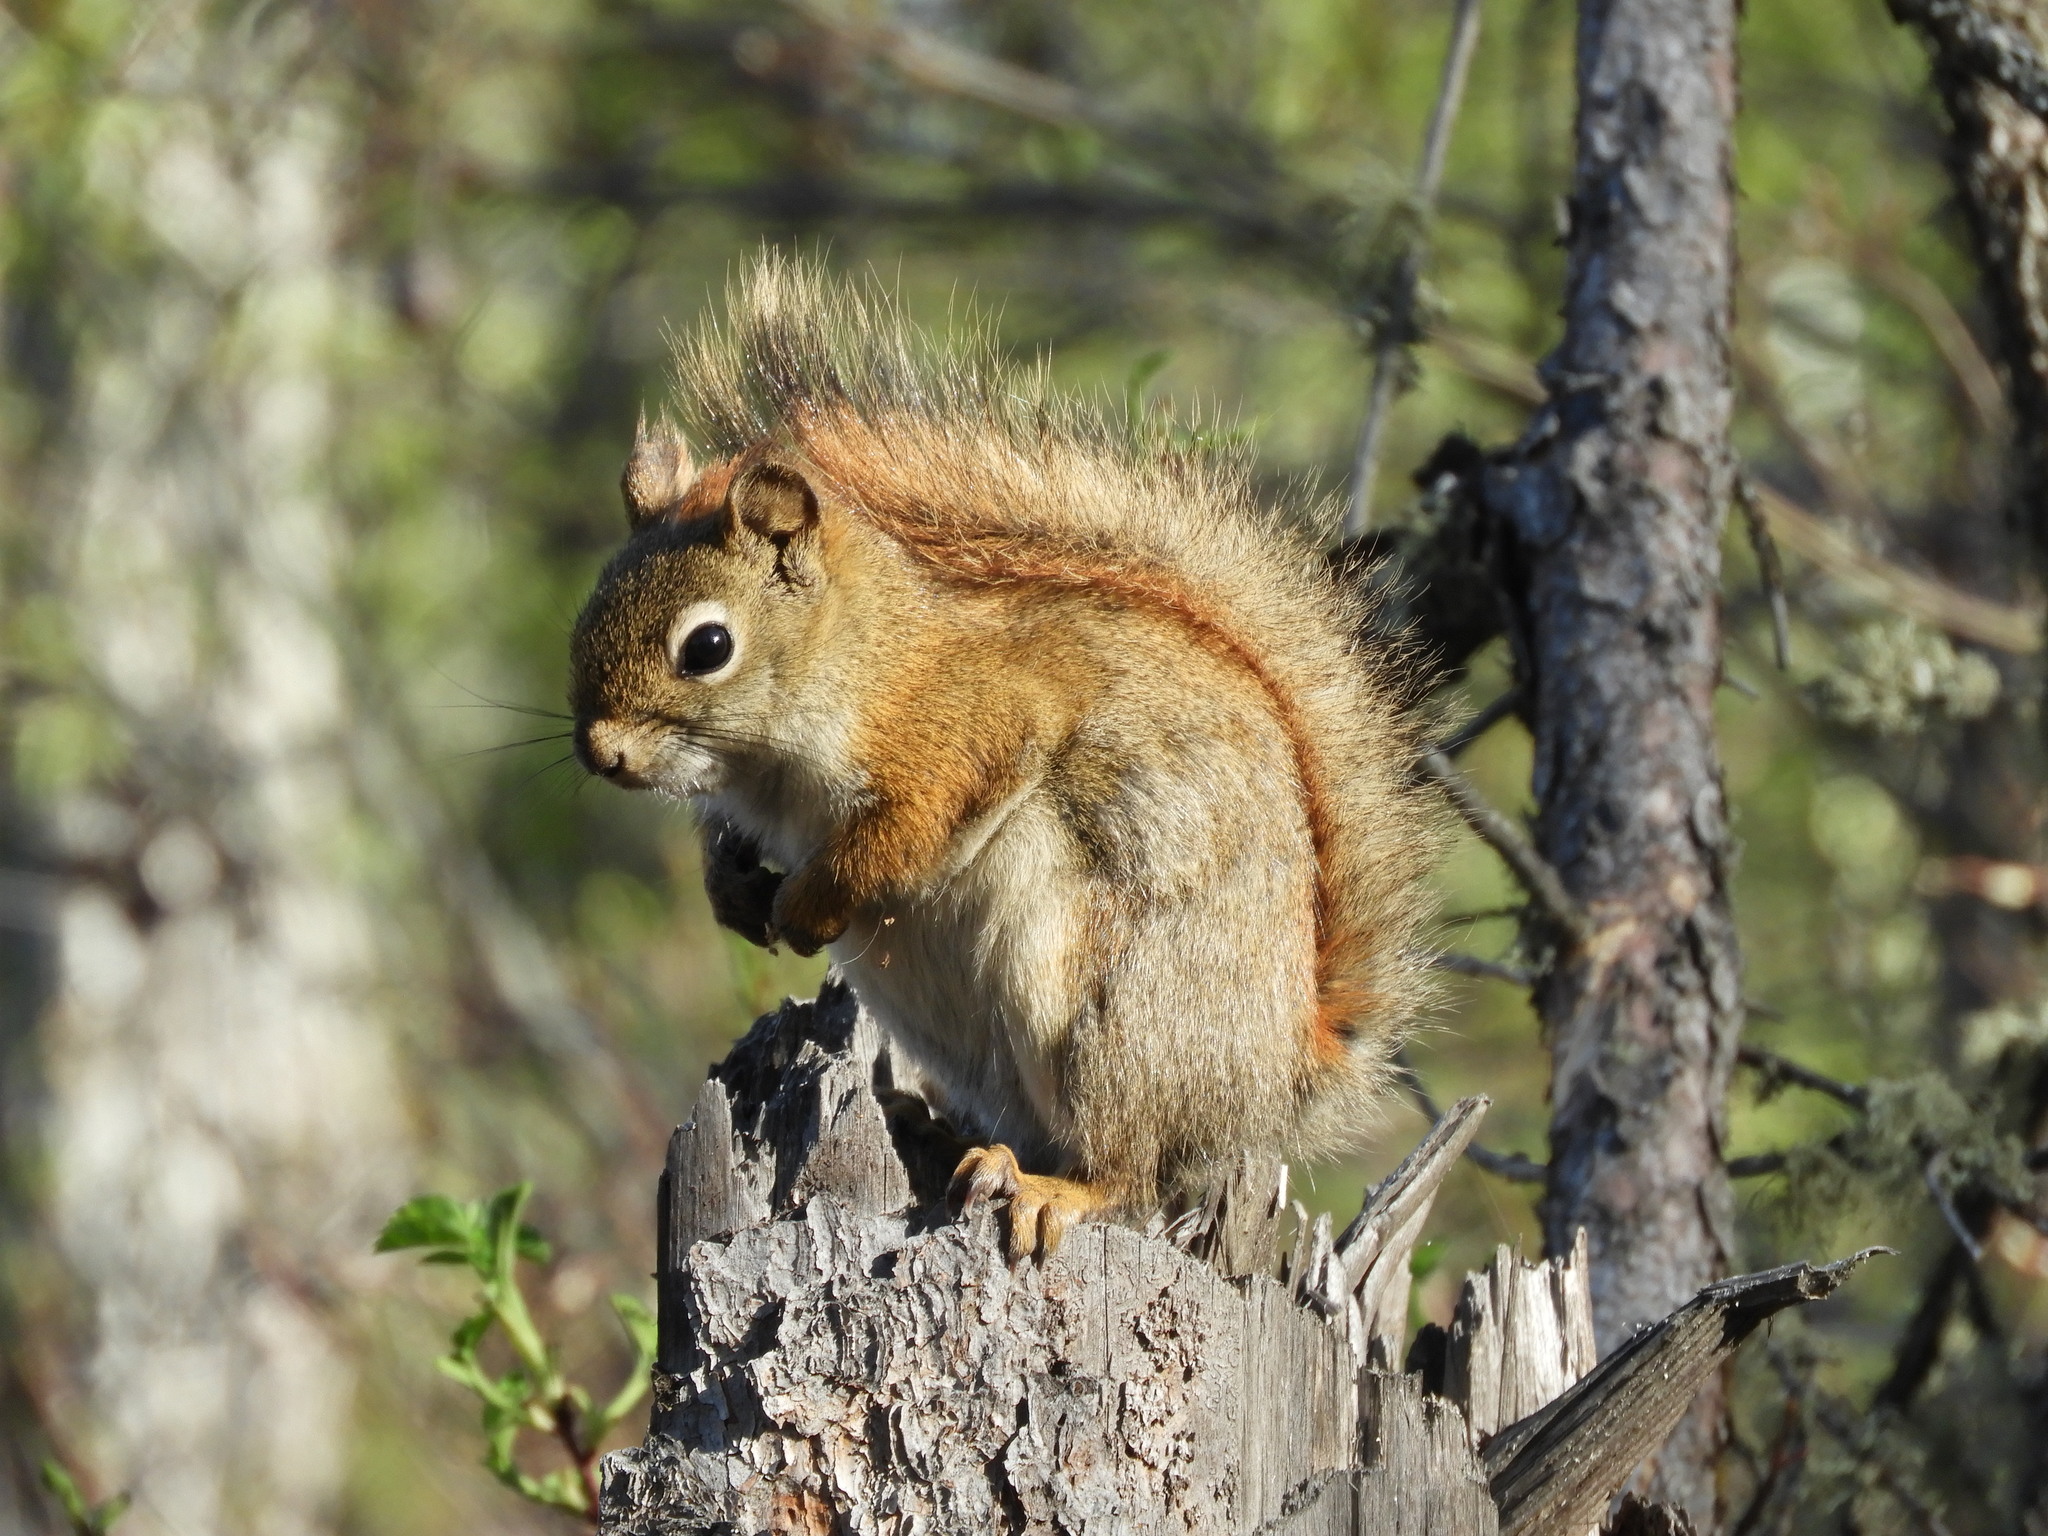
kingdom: Animalia
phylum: Chordata
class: Mammalia
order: Rodentia
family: Sciuridae
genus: Tamiasciurus
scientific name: Tamiasciurus hudsonicus
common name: Red squirrel
